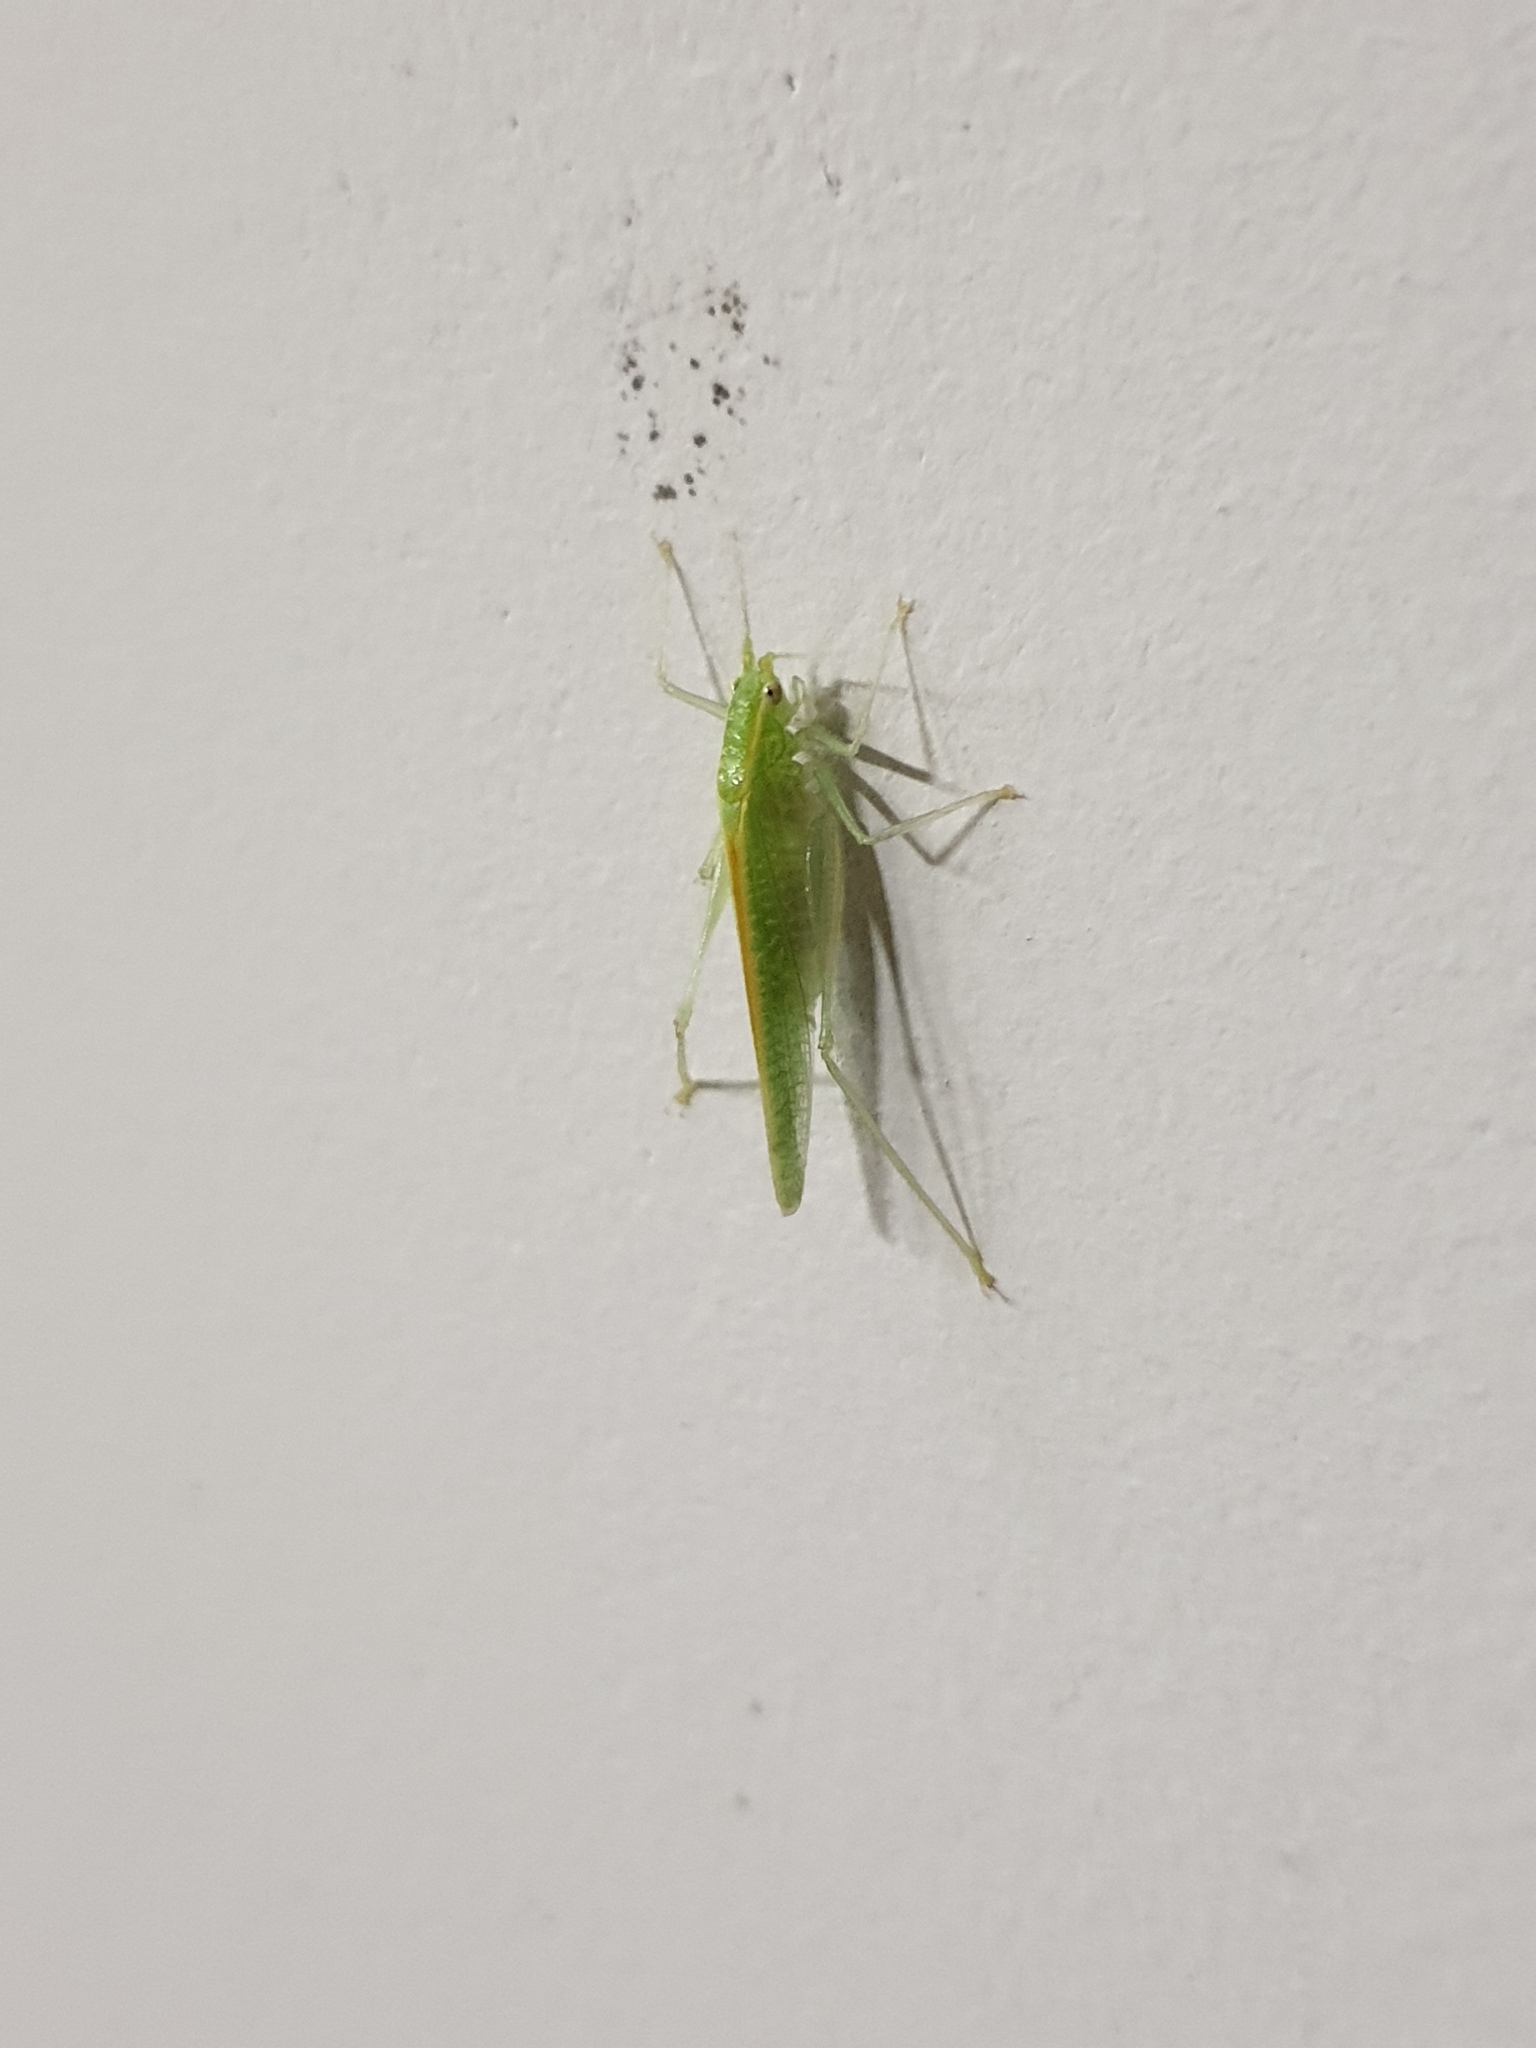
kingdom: Animalia
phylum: Arthropoda
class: Insecta
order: Orthoptera
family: Tettigoniidae
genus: Leptoteratura
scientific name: Leptoteratura albicorne
